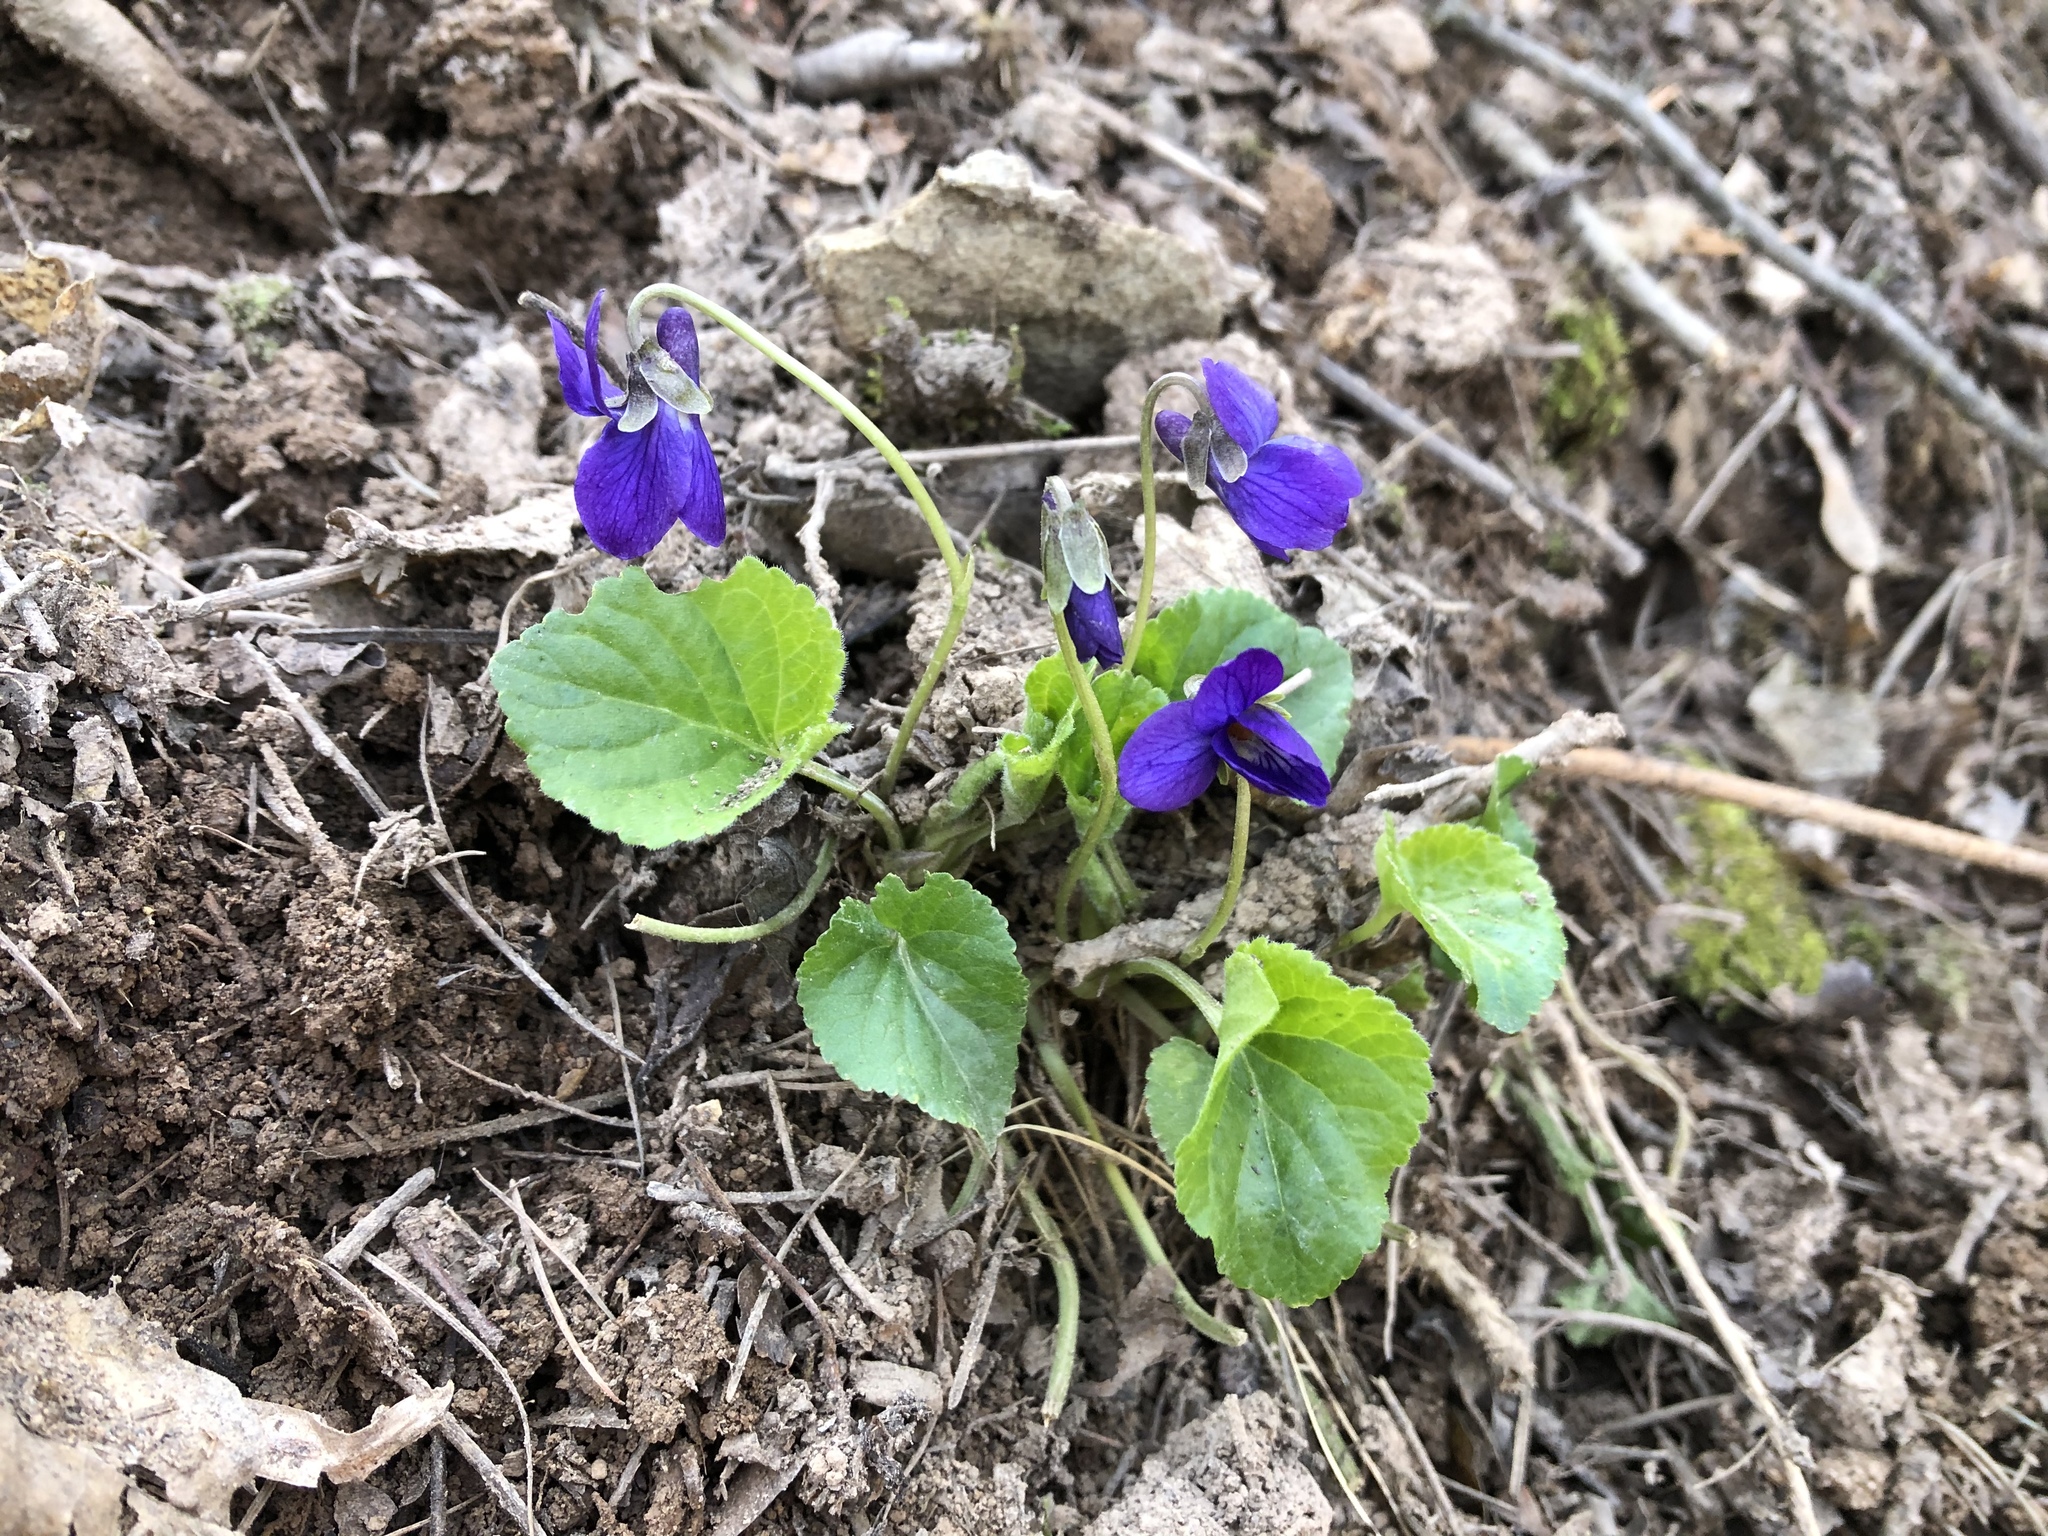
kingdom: Plantae
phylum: Tracheophyta
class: Magnoliopsida
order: Malpighiales
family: Violaceae
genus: Viola
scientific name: Viola odorata
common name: Sweet violet
